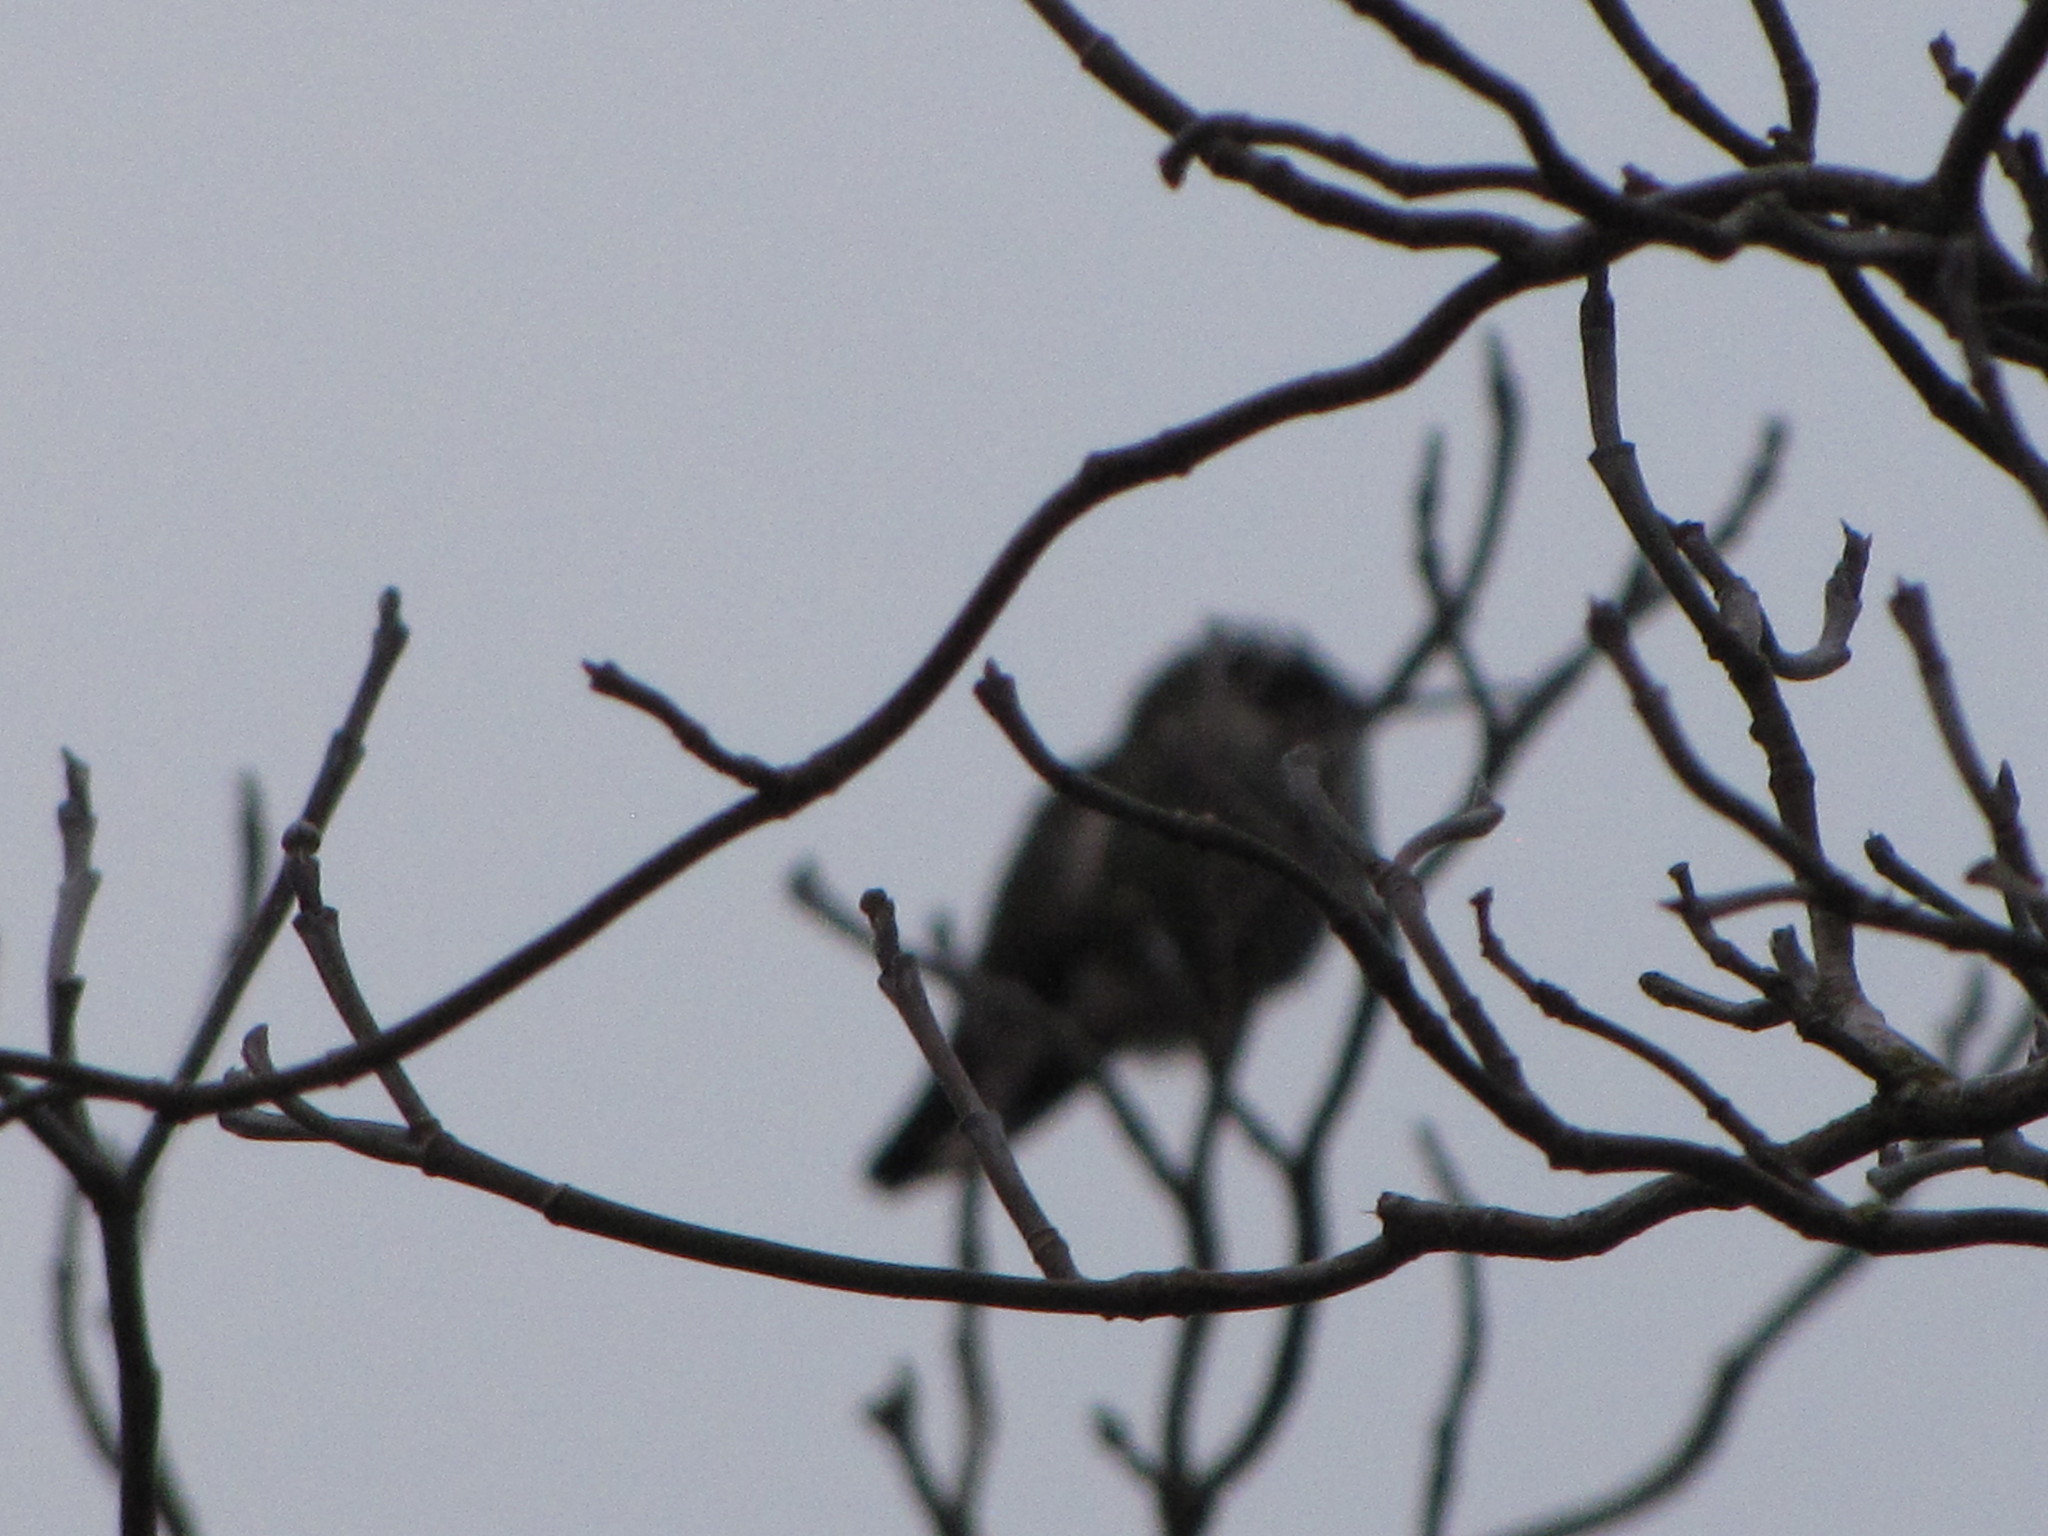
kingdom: Animalia
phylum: Chordata
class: Aves
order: Apodiformes
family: Trochilidae
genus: Calypte
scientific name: Calypte anna
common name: Anna's hummingbird
